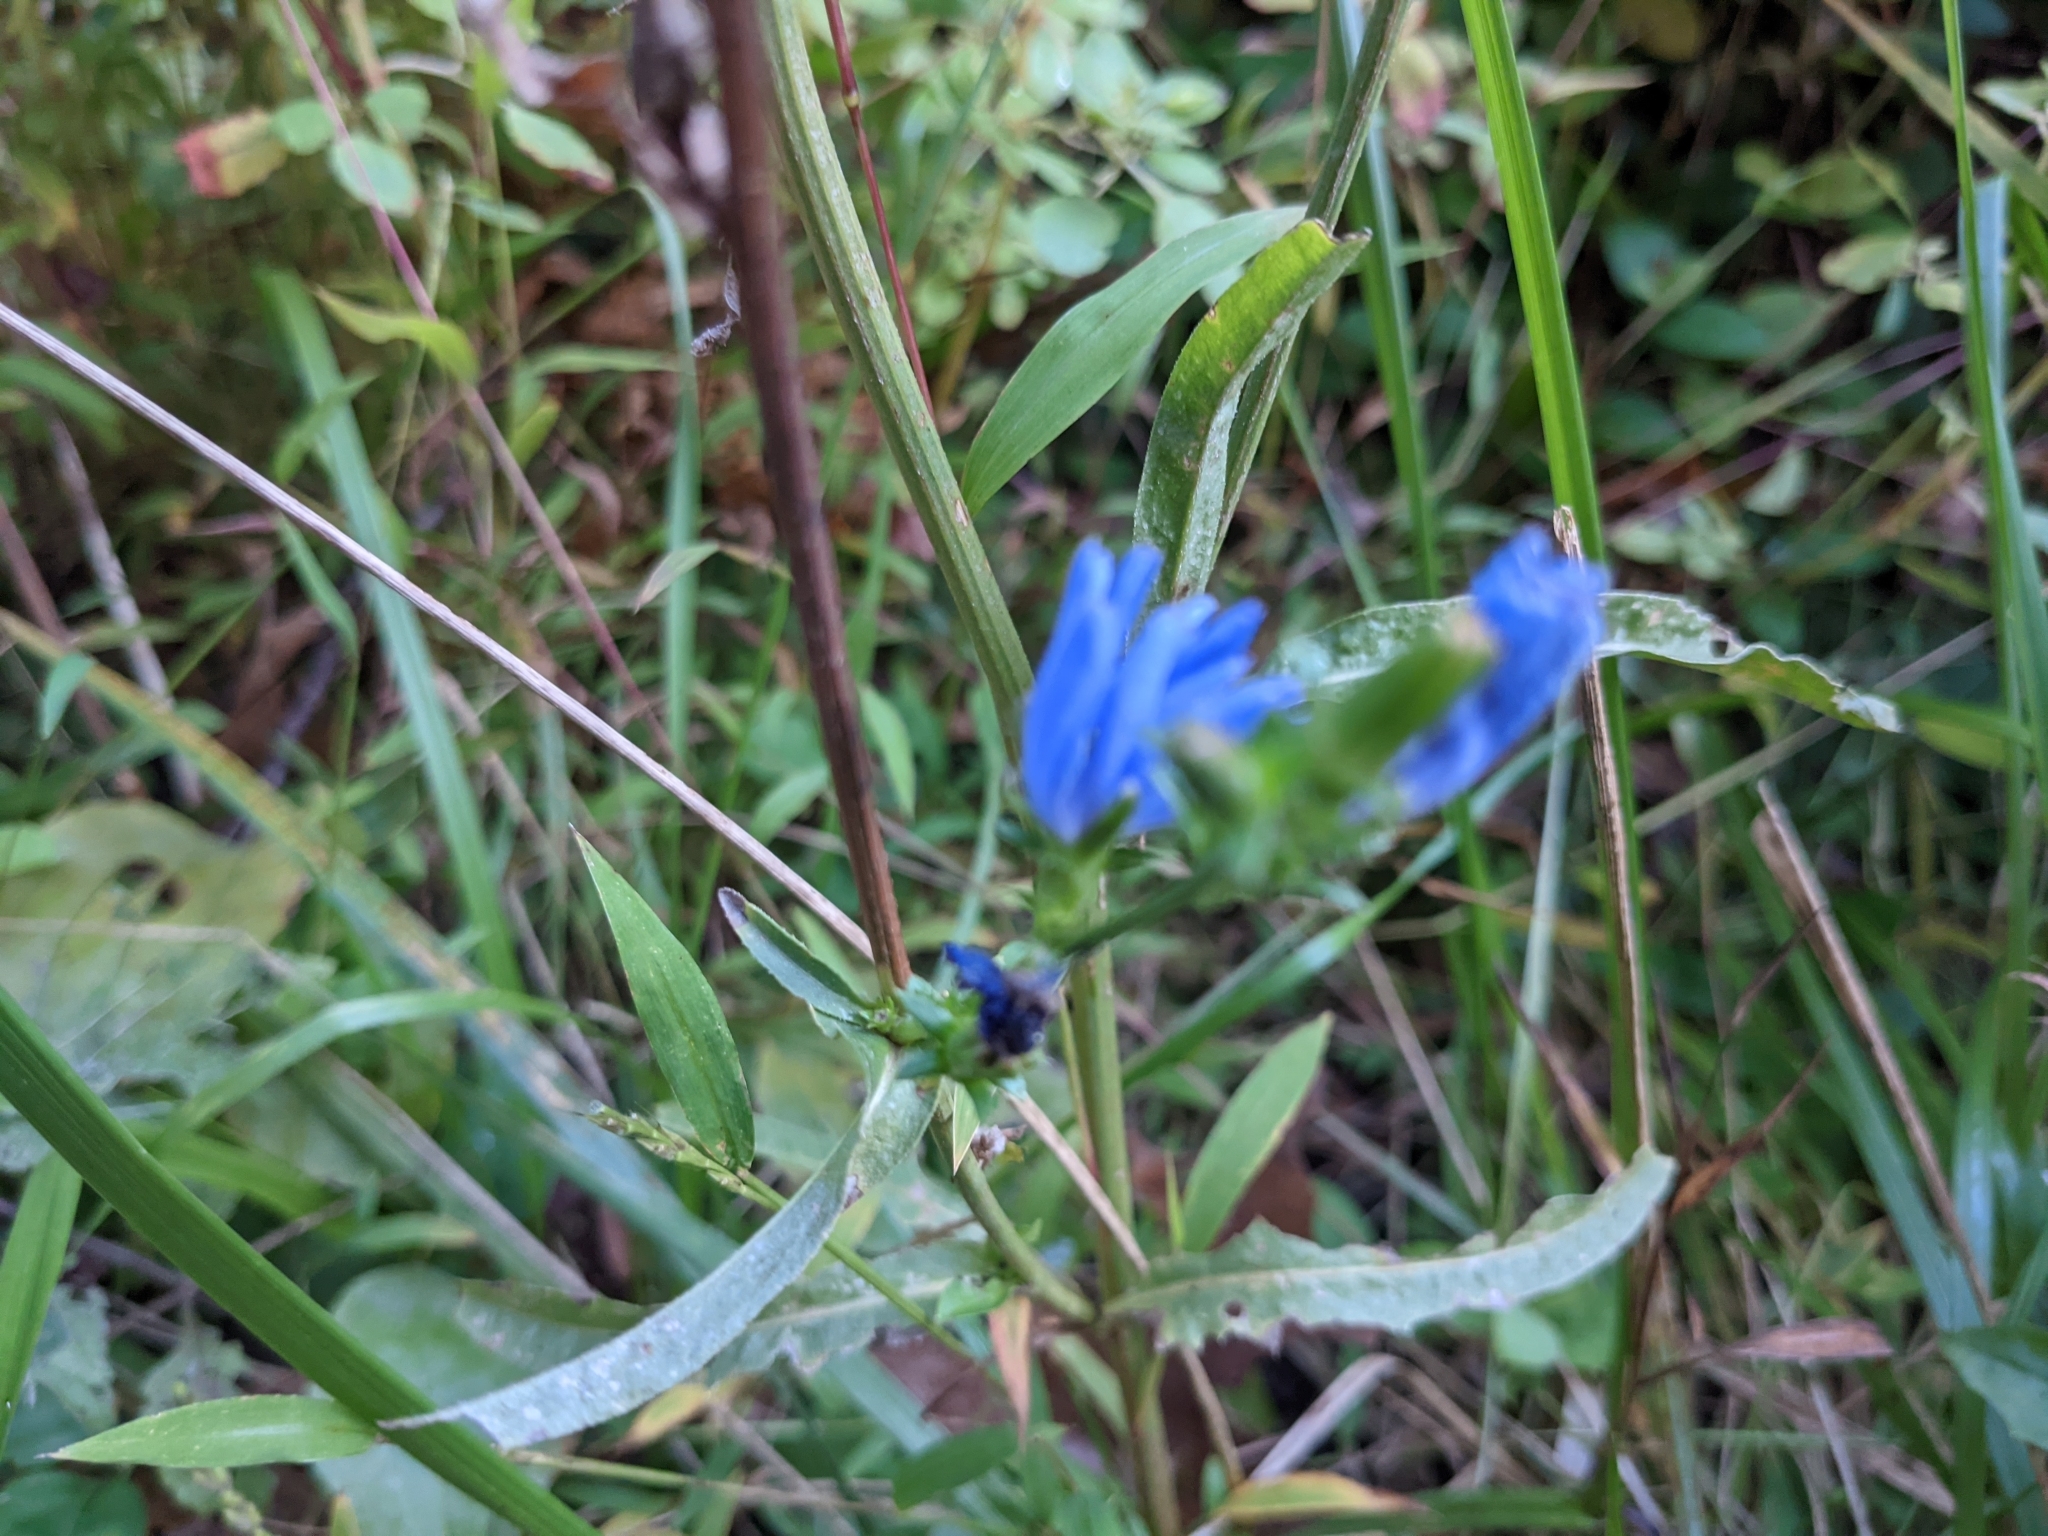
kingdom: Plantae
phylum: Tracheophyta
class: Magnoliopsida
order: Asterales
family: Asteraceae
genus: Cichorium
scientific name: Cichorium intybus
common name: Chicory
